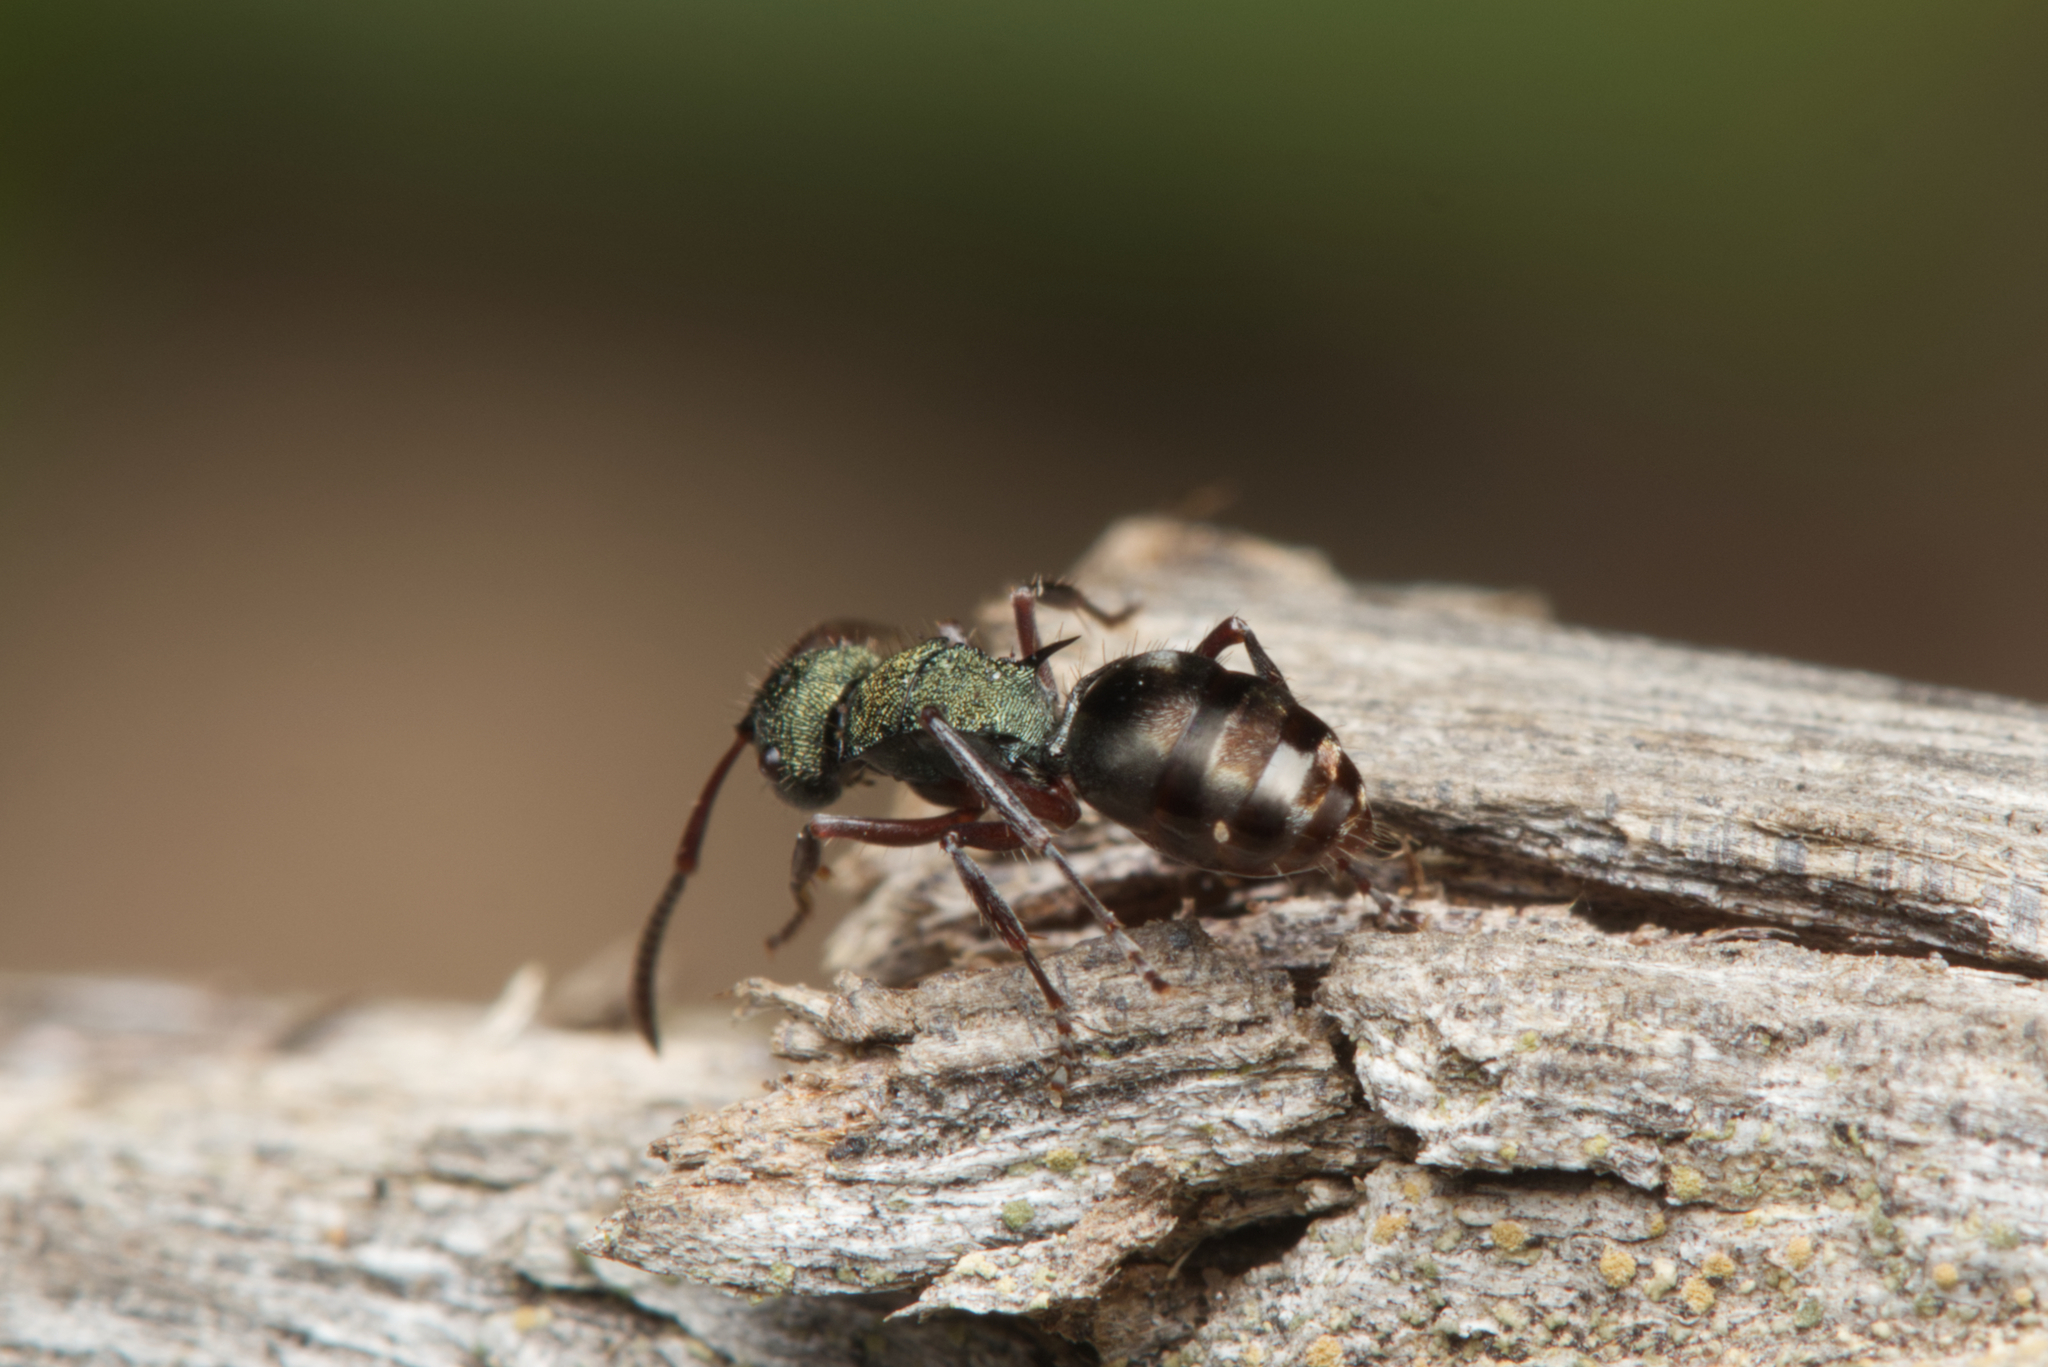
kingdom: Animalia
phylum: Arthropoda
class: Insecta
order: Hymenoptera
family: Formicidae
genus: Polyrhachis
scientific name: Polyrhachis hookeri
